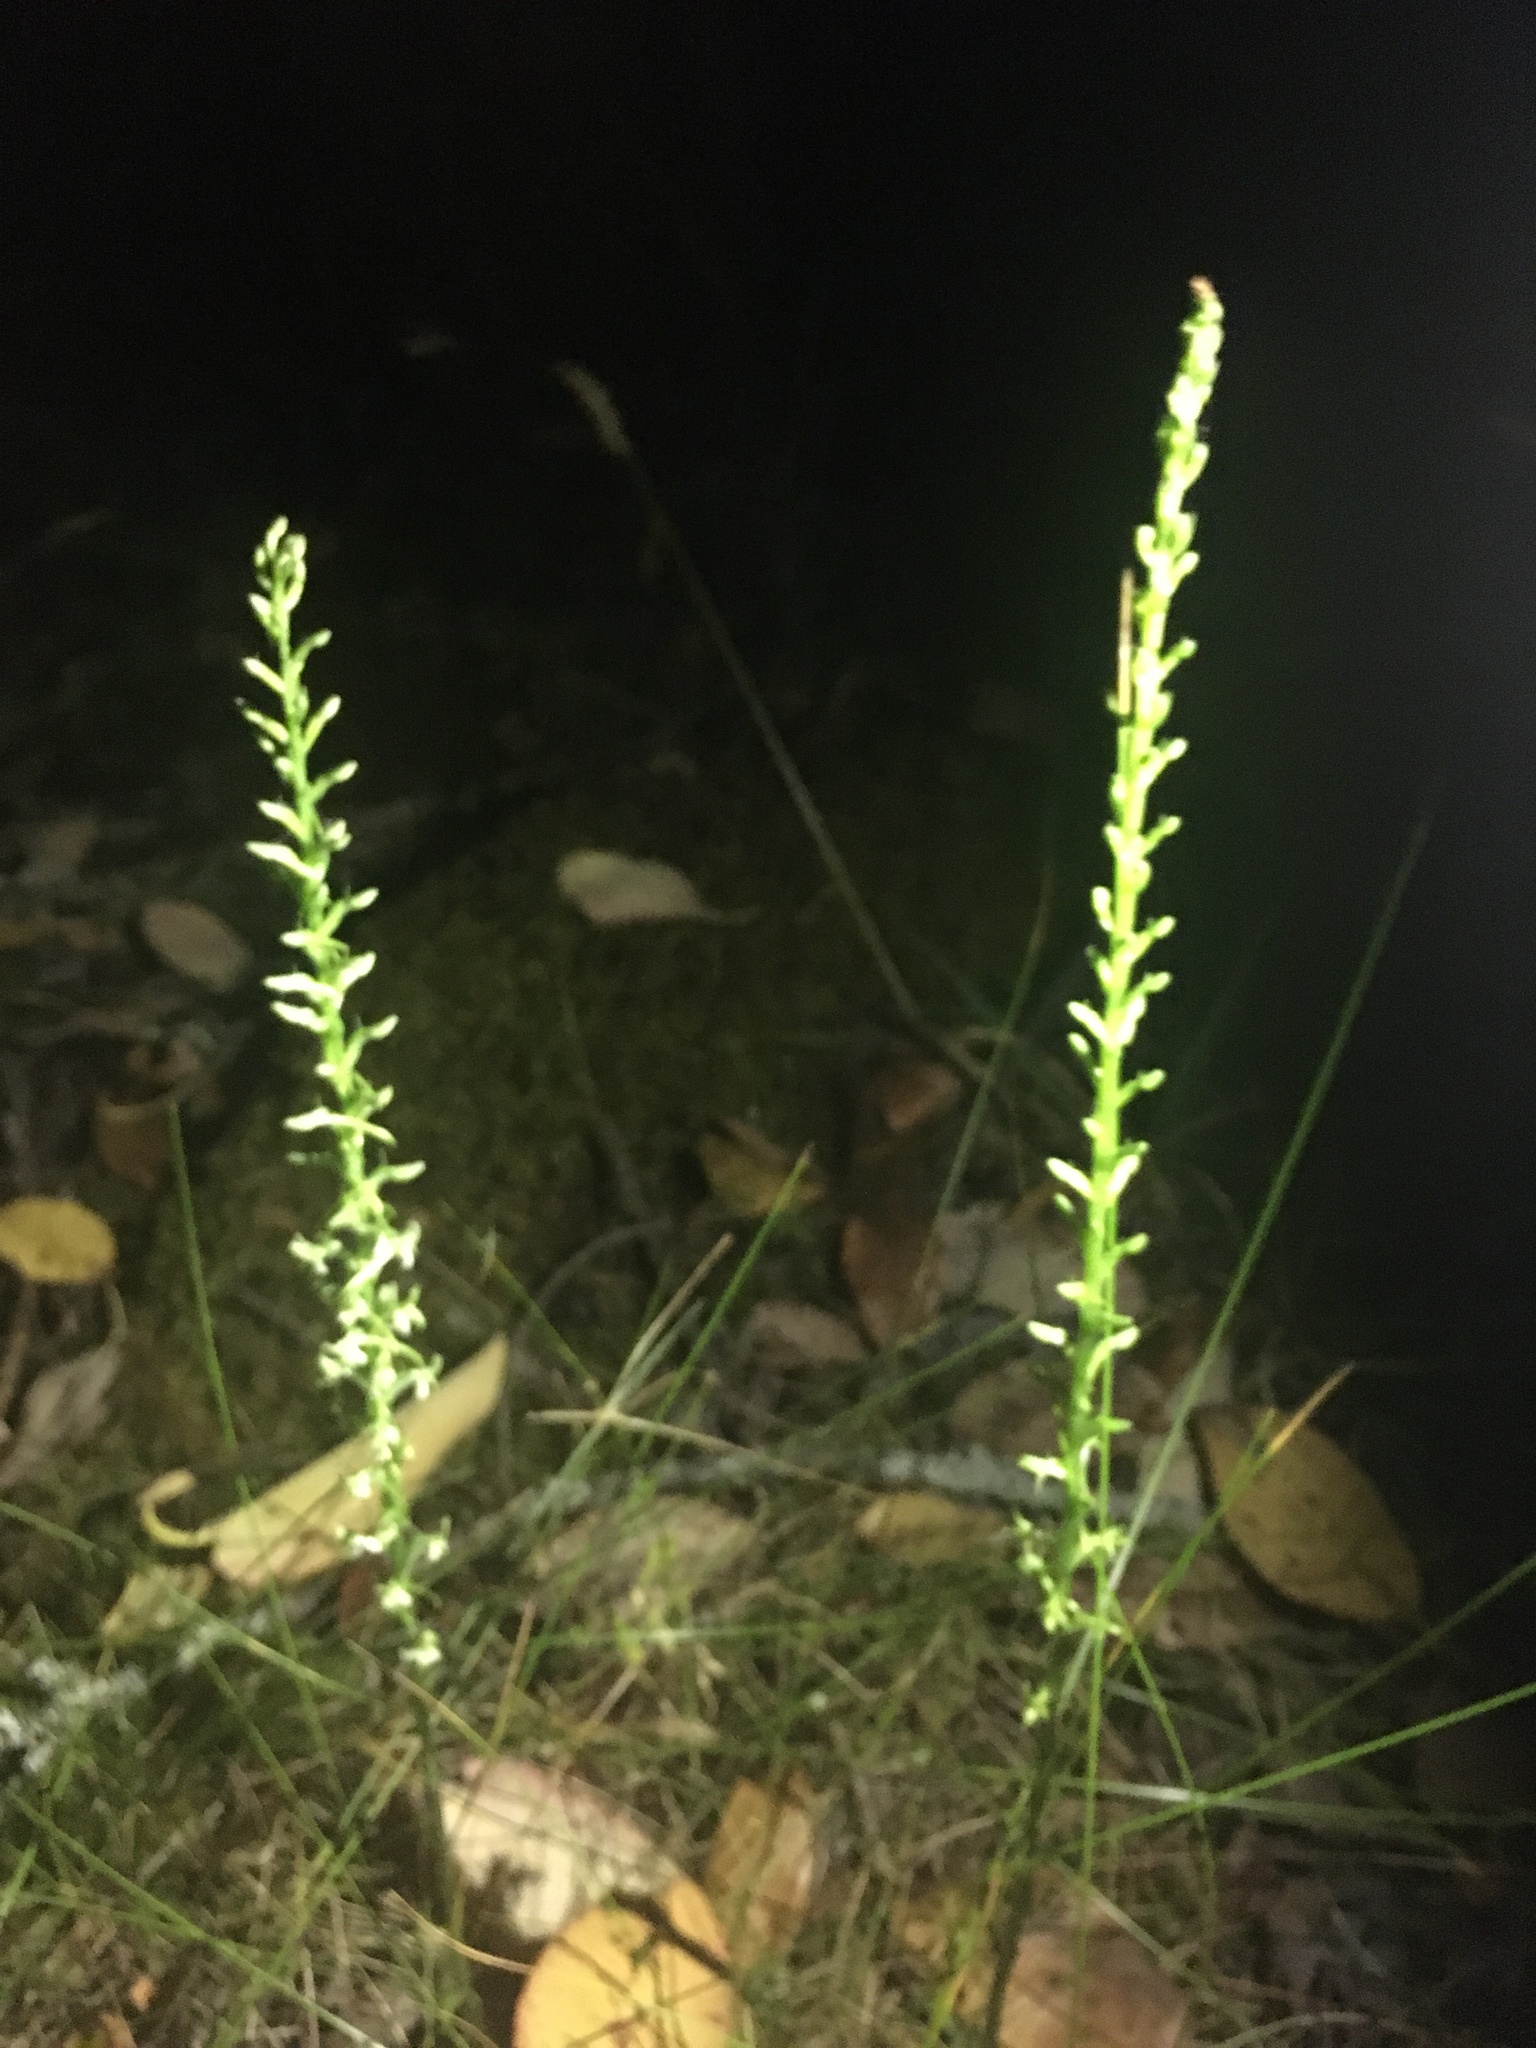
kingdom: Plantae
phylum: Tracheophyta
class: Liliopsida
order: Asparagales
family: Orchidaceae
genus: Platanthera
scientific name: Platanthera elongata
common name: Dense-flowered rein orchid
